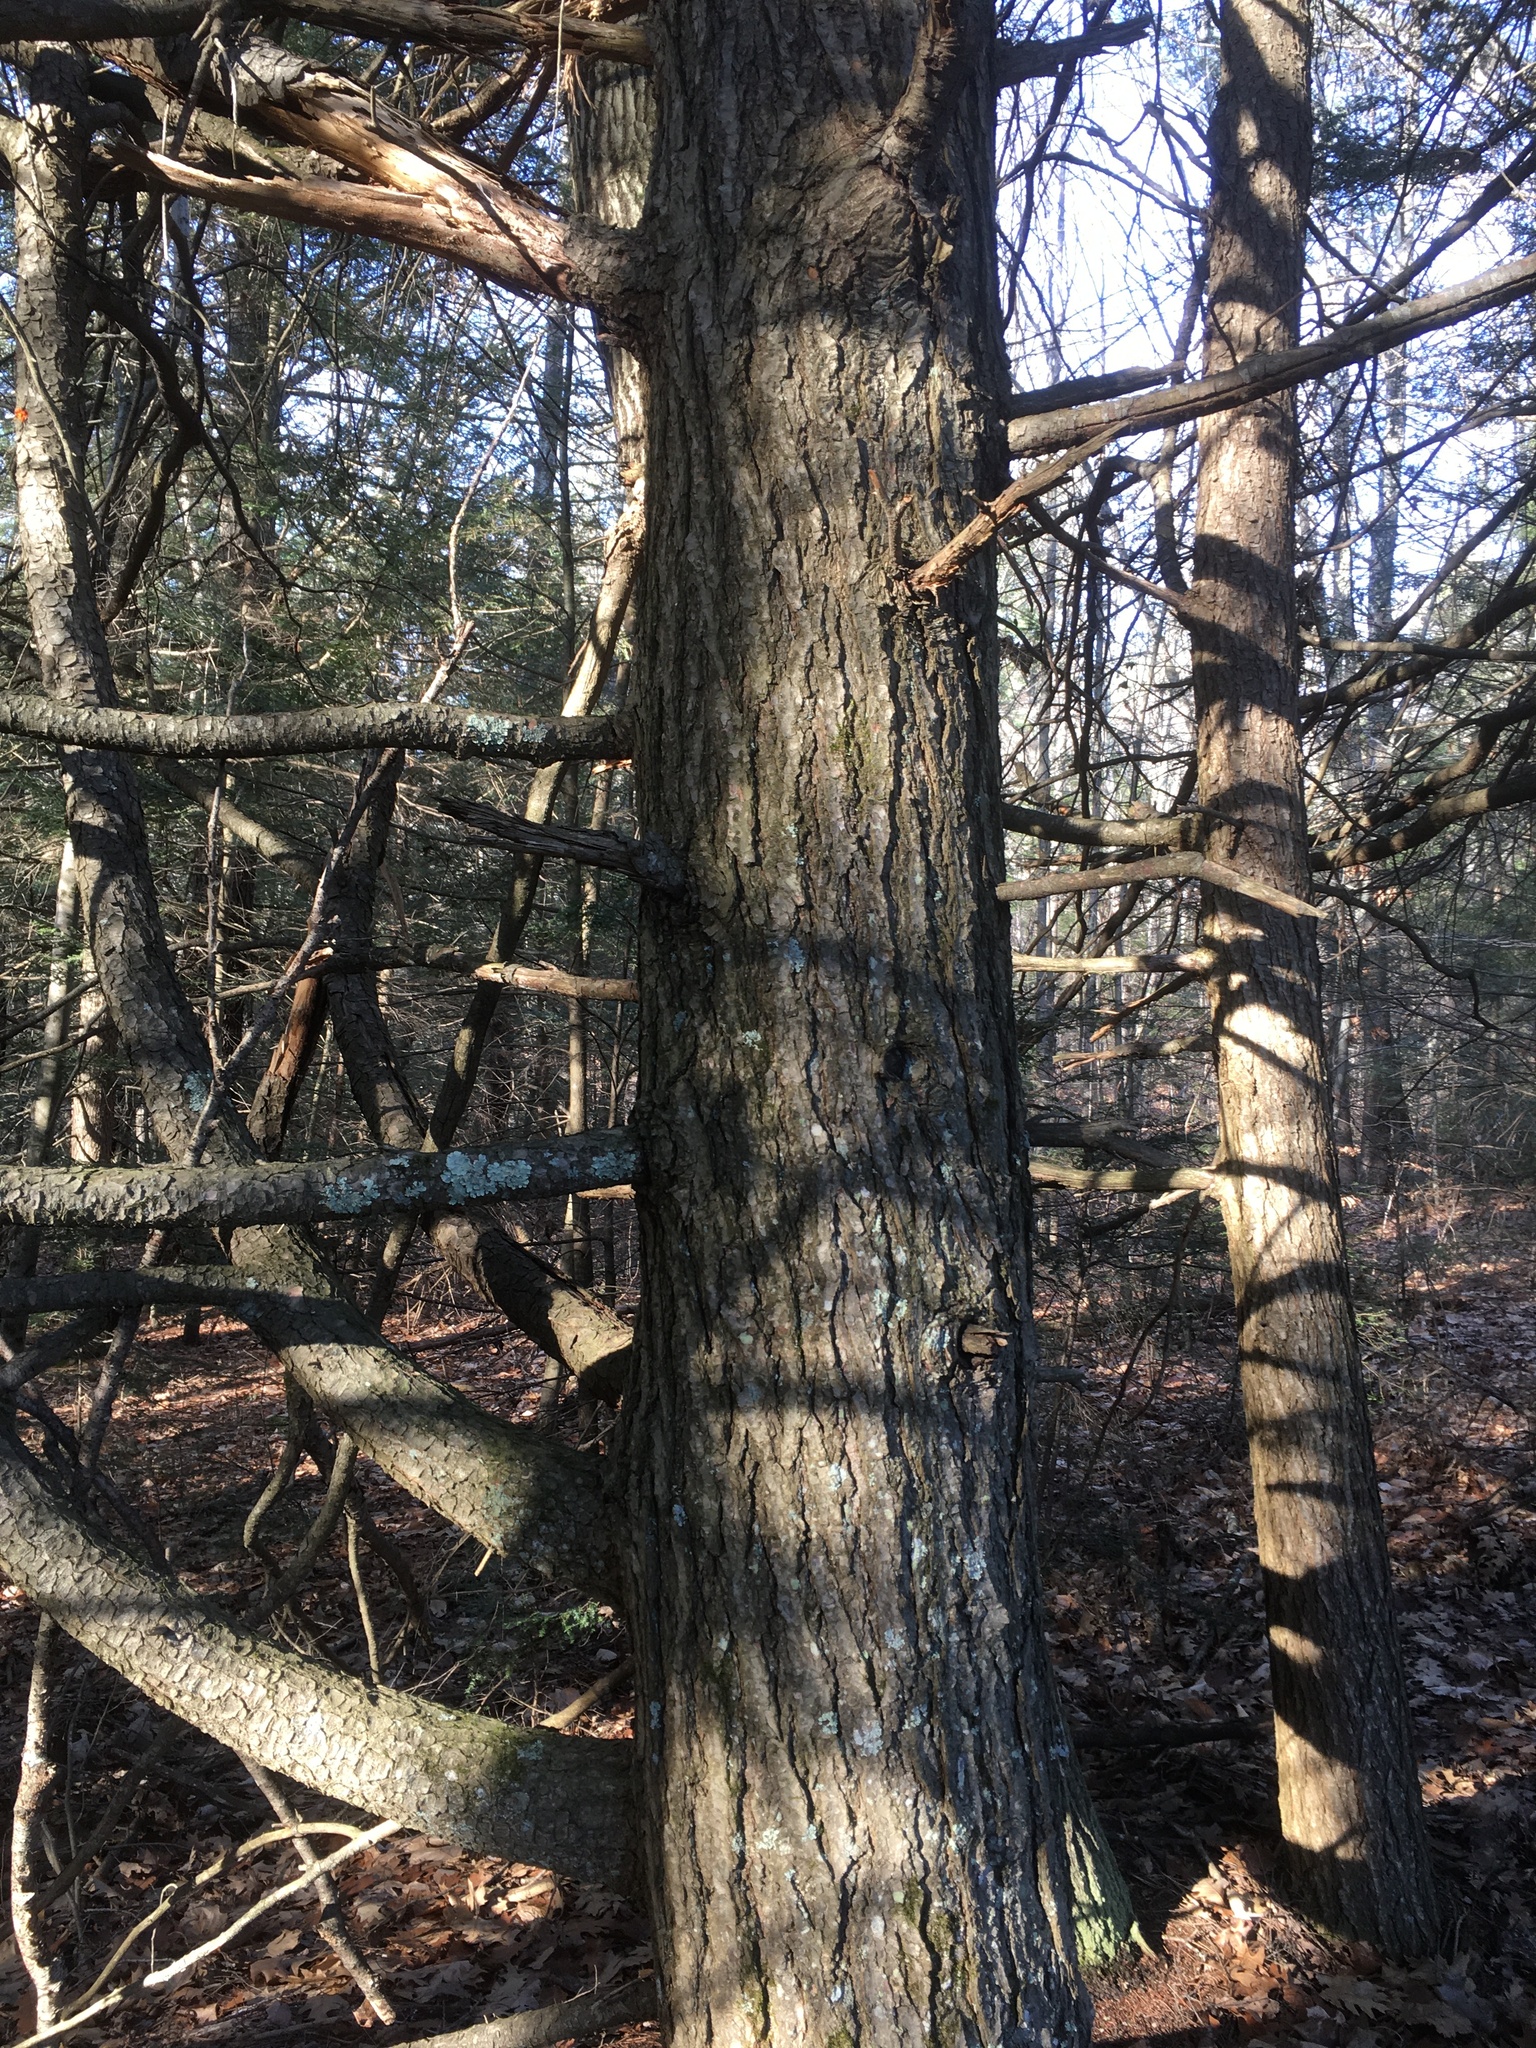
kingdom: Plantae
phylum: Tracheophyta
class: Pinopsida
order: Pinales
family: Pinaceae
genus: Tsuga
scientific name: Tsuga canadensis
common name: Eastern hemlock
